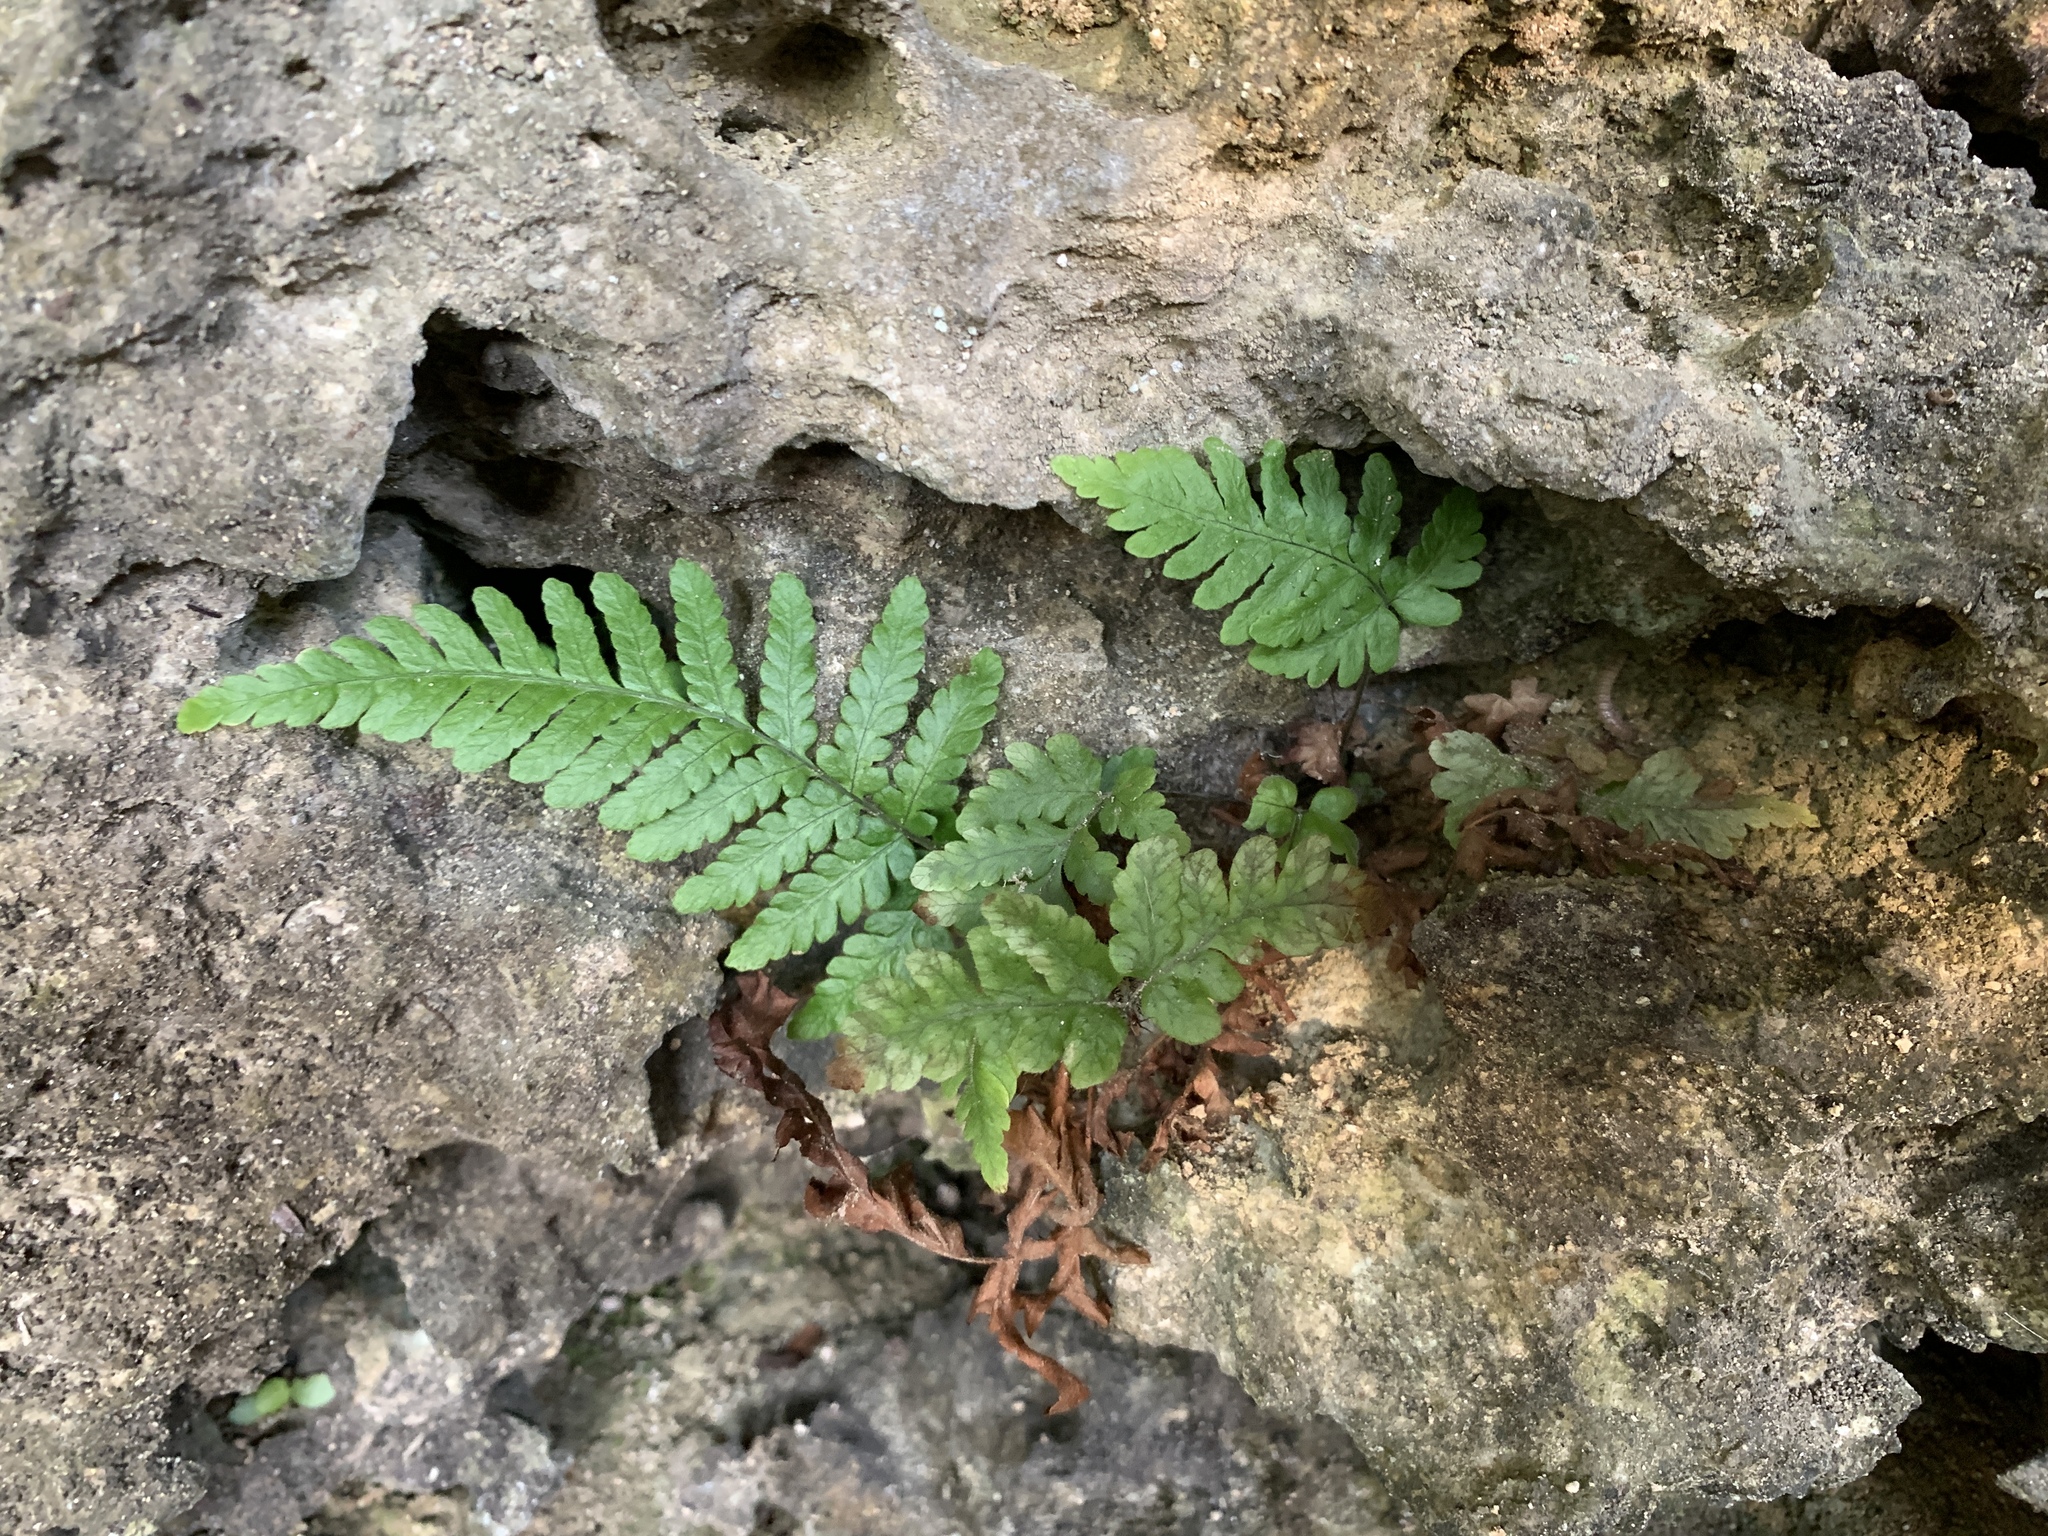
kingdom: Plantae
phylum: Tracheophyta
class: Polypodiopsida
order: Polypodiales
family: Dryopteridaceae
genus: Ctenitis
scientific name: Ctenitis eatonii
